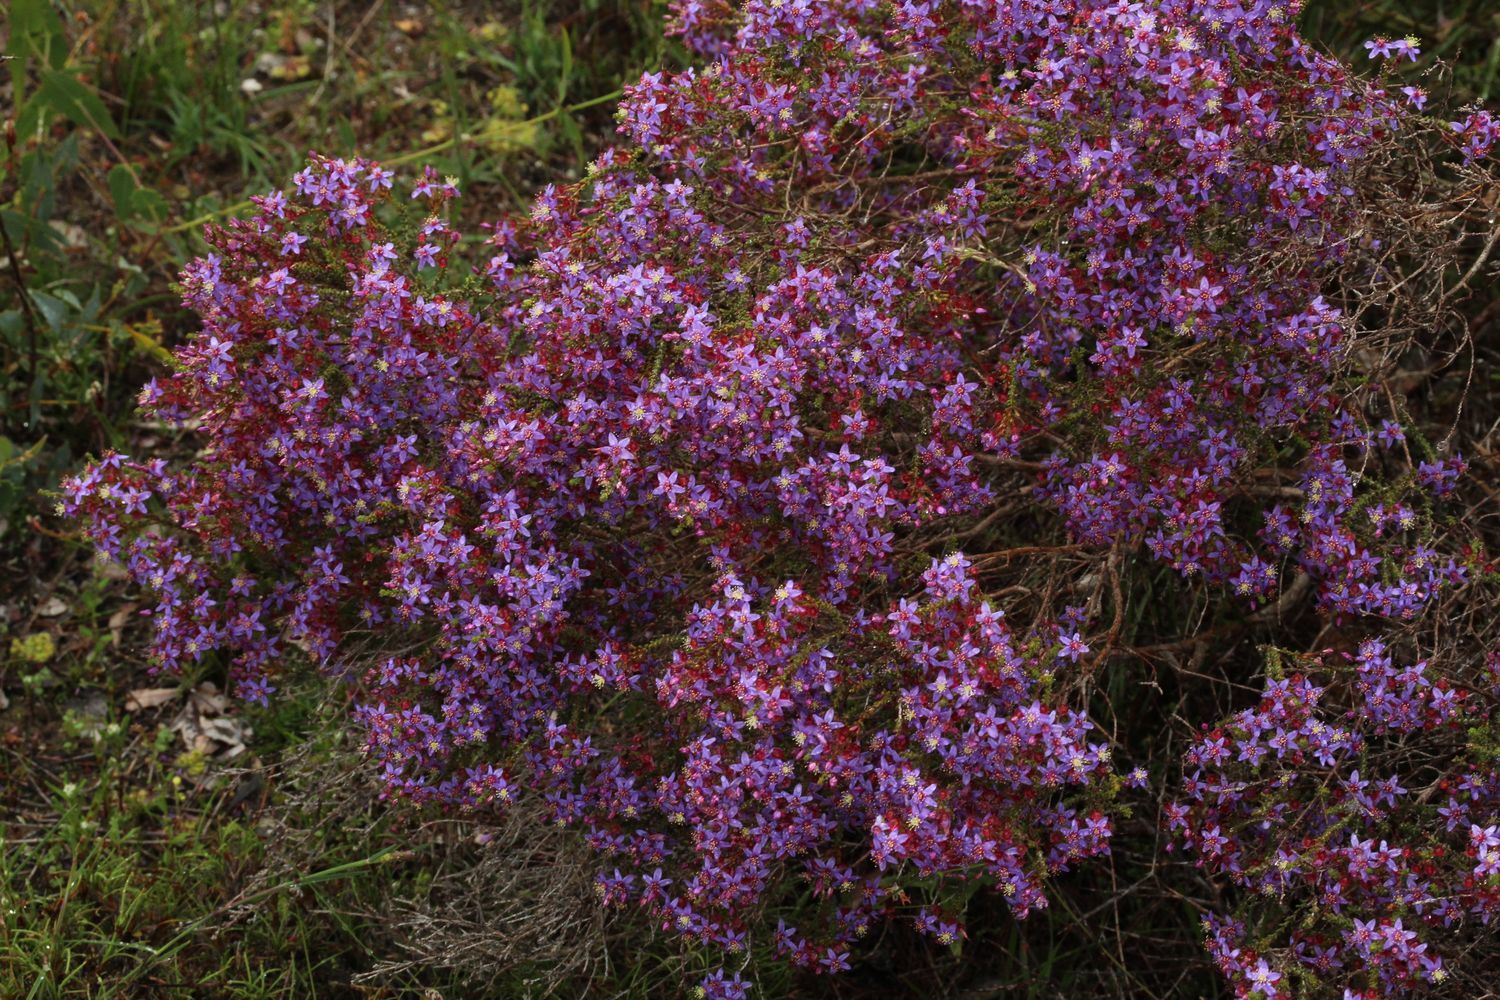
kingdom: Plantae
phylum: Tracheophyta
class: Magnoliopsida
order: Myrtales
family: Myrtaceae
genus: Calytrix
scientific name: Calytrix leschenaultii
